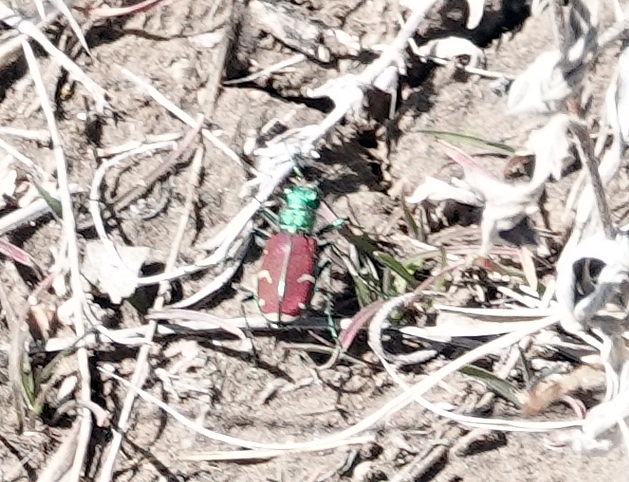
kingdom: Animalia
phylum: Arthropoda
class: Insecta
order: Coleoptera
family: Carabidae
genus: Cicindela
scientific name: Cicindela splendida
